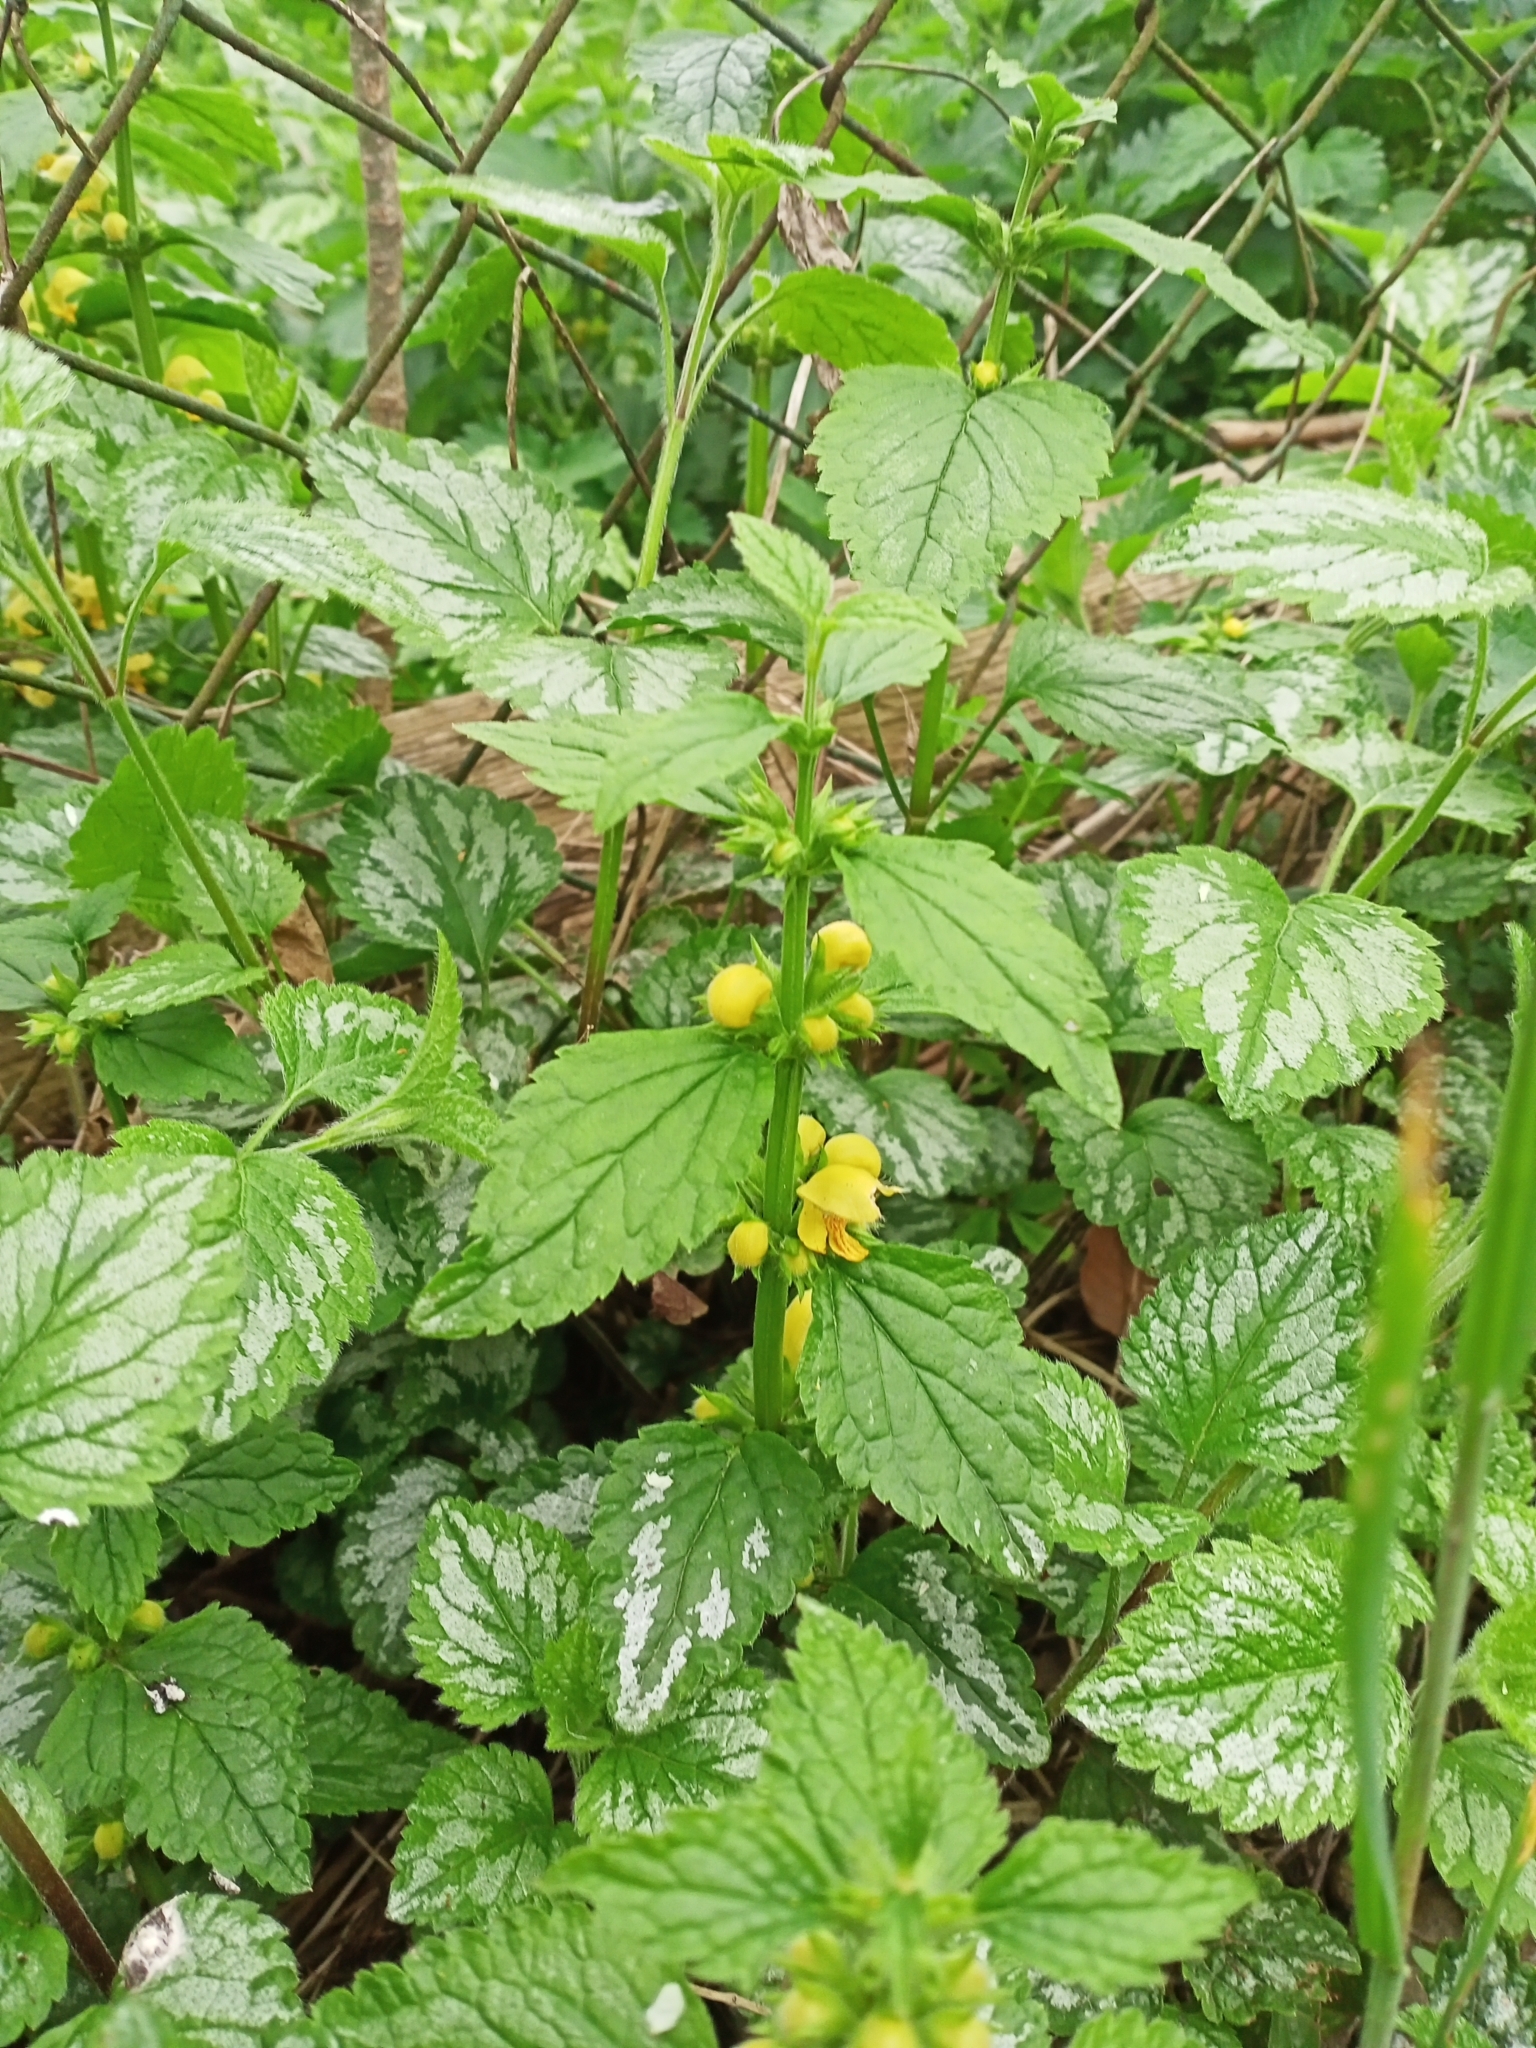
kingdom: Plantae
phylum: Tracheophyta
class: Magnoliopsida
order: Lamiales
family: Lamiaceae
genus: Lamium
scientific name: Lamium galeobdolon
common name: Yellow archangel
